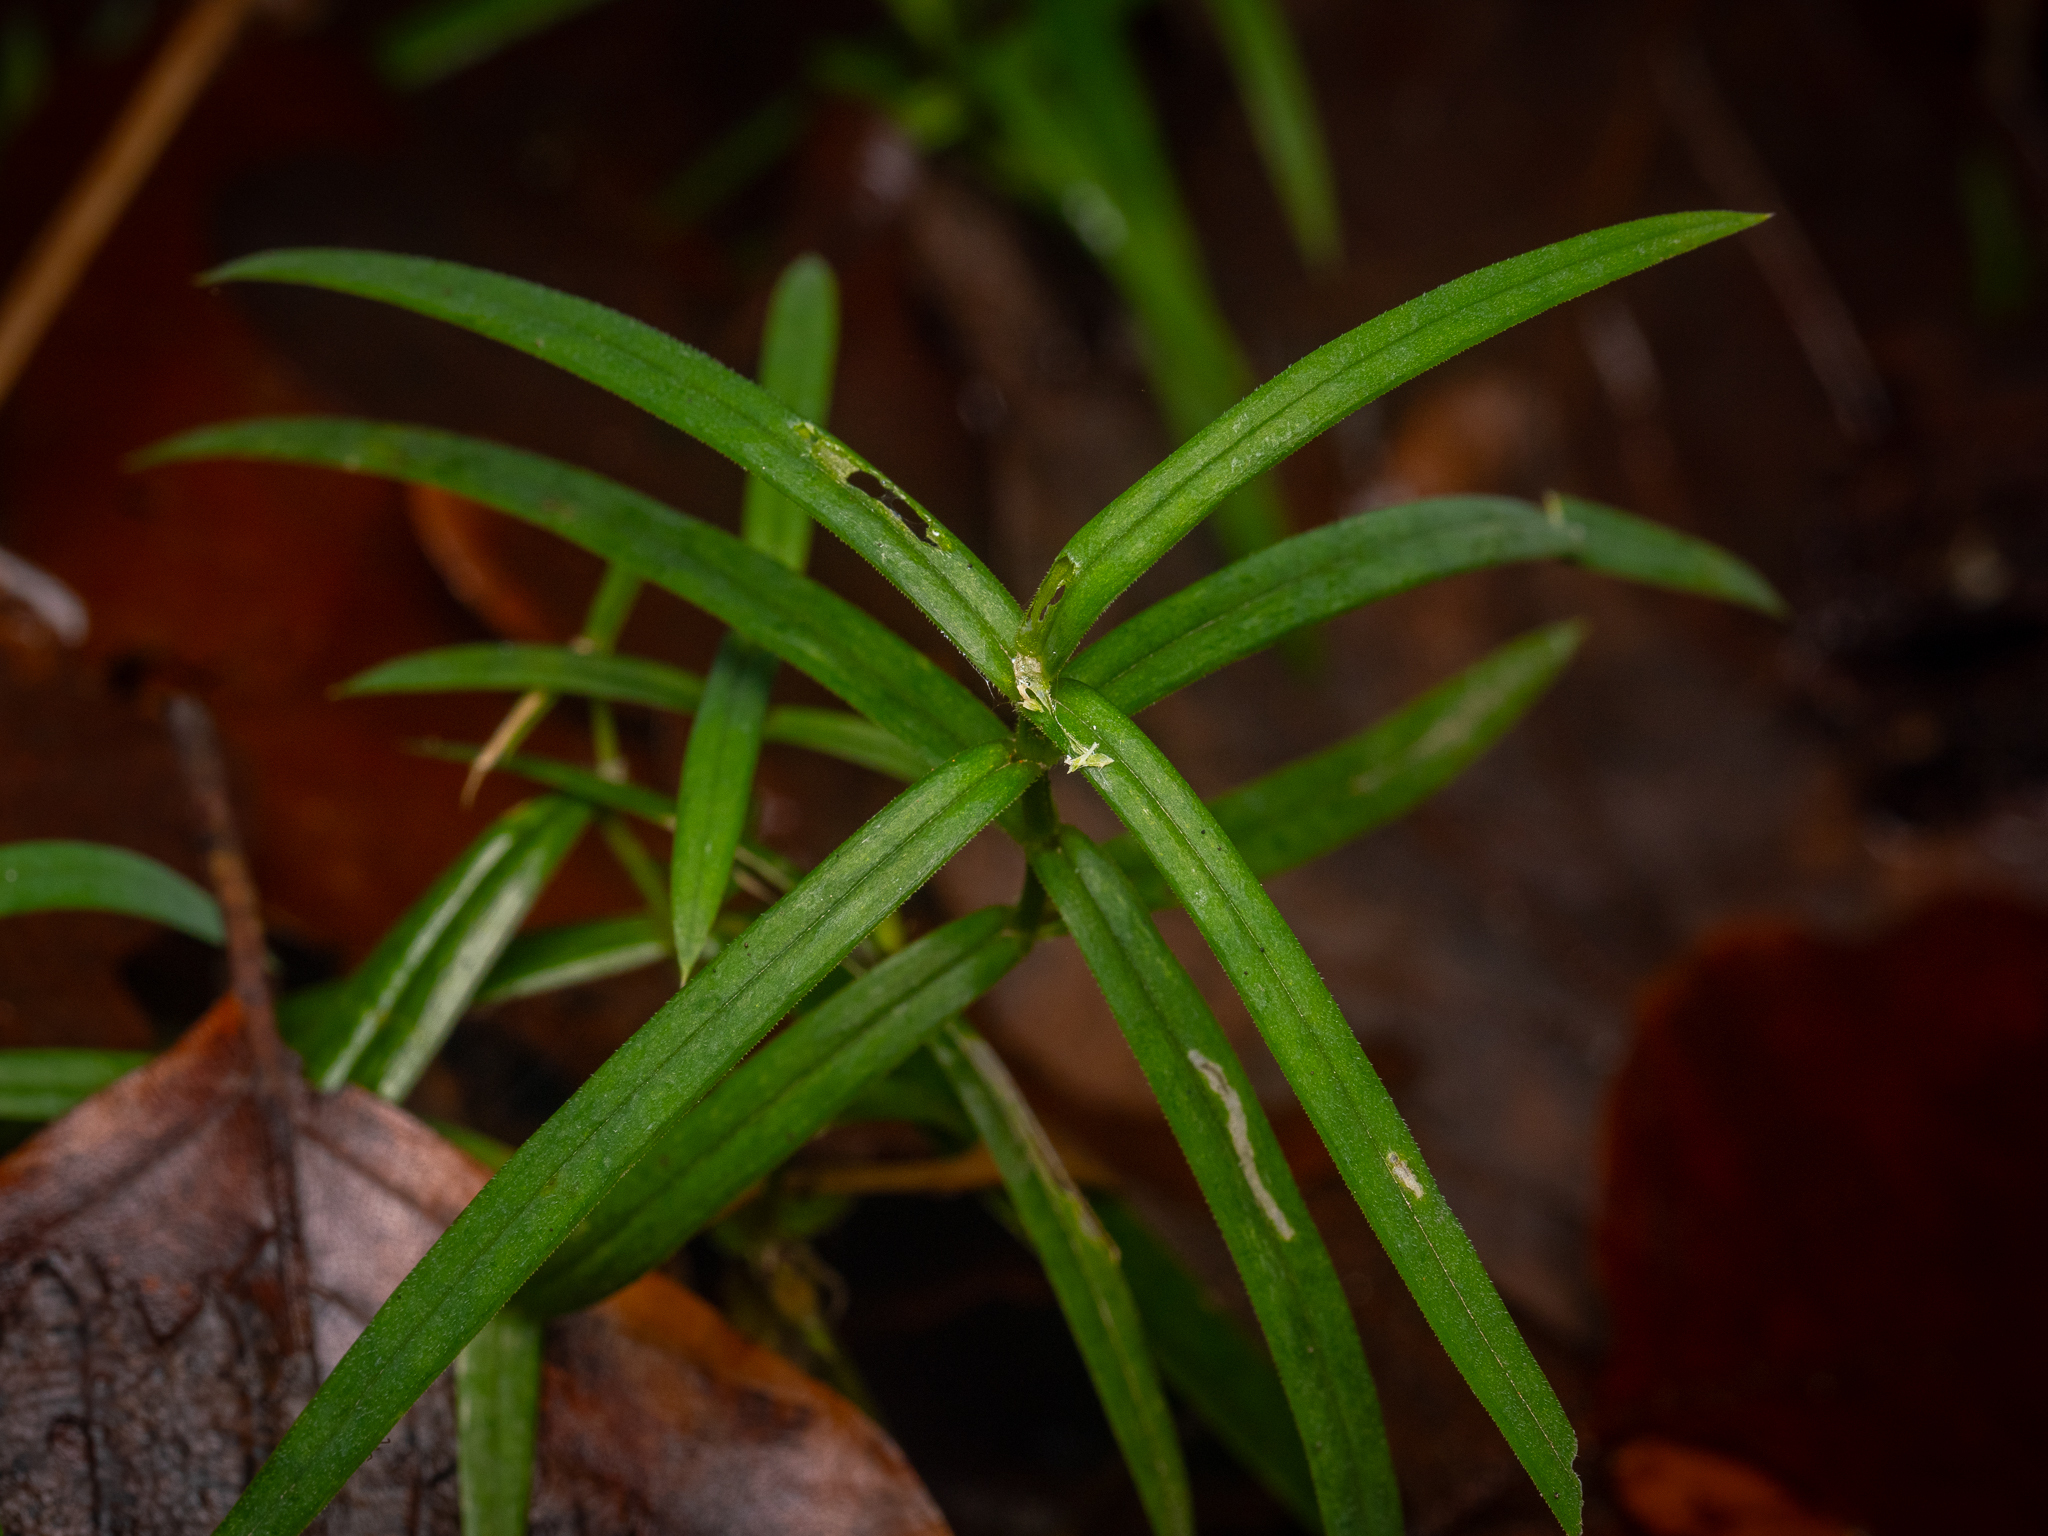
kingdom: Plantae
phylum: Tracheophyta
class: Magnoliopsida
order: Caryophyllales
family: Caryophyllaceae
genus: Rabelera
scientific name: Rabelera holostea
